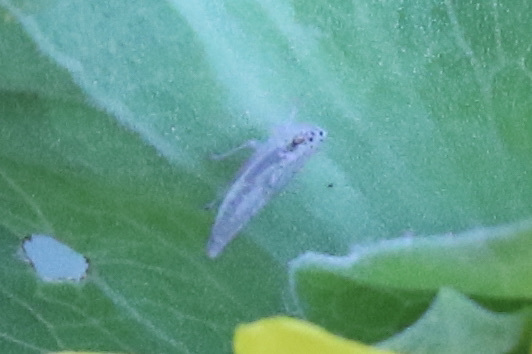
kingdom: Animalia
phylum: Arthropoda
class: Insecta
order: Hemiptera
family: Cicadellidae
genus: Pagaronia
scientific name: Pagaronia triunata
